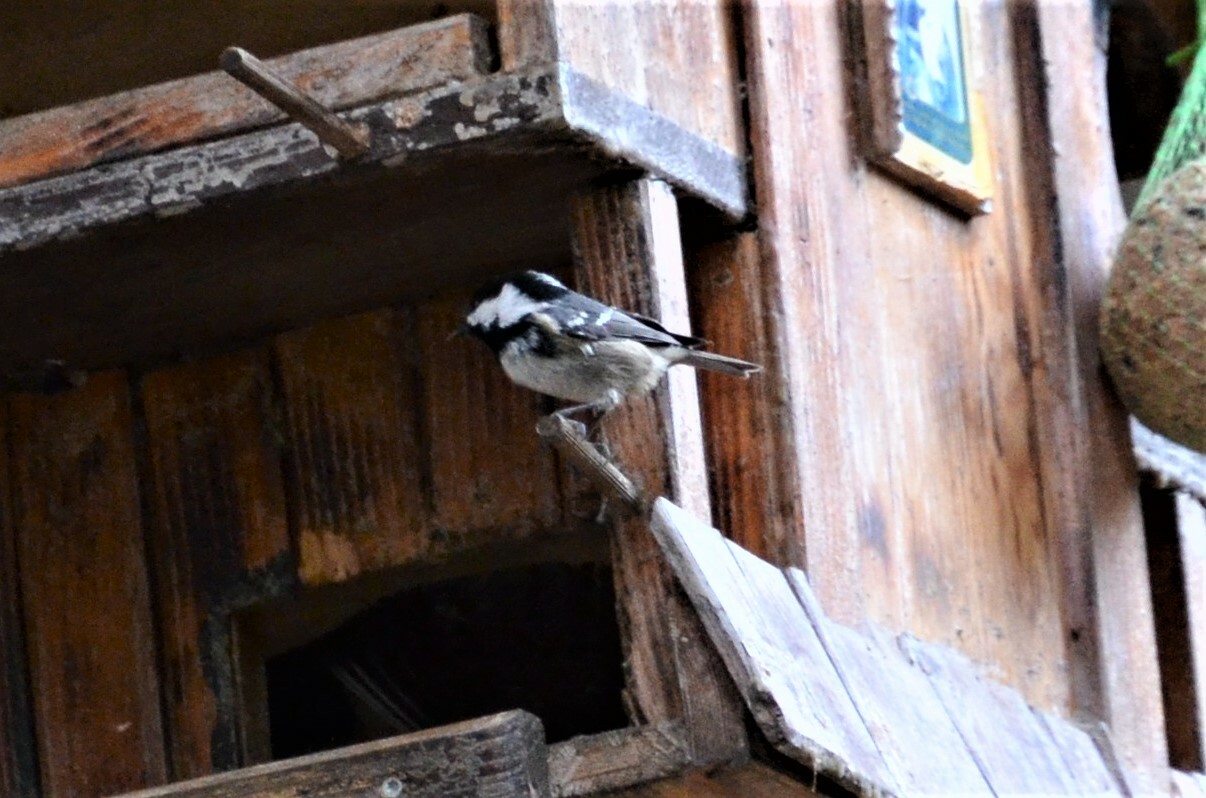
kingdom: Animalia
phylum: Chordata
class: Aves
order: Passeriformes
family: Paridae
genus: Periparus
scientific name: Periparus ater
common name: Coal tit
